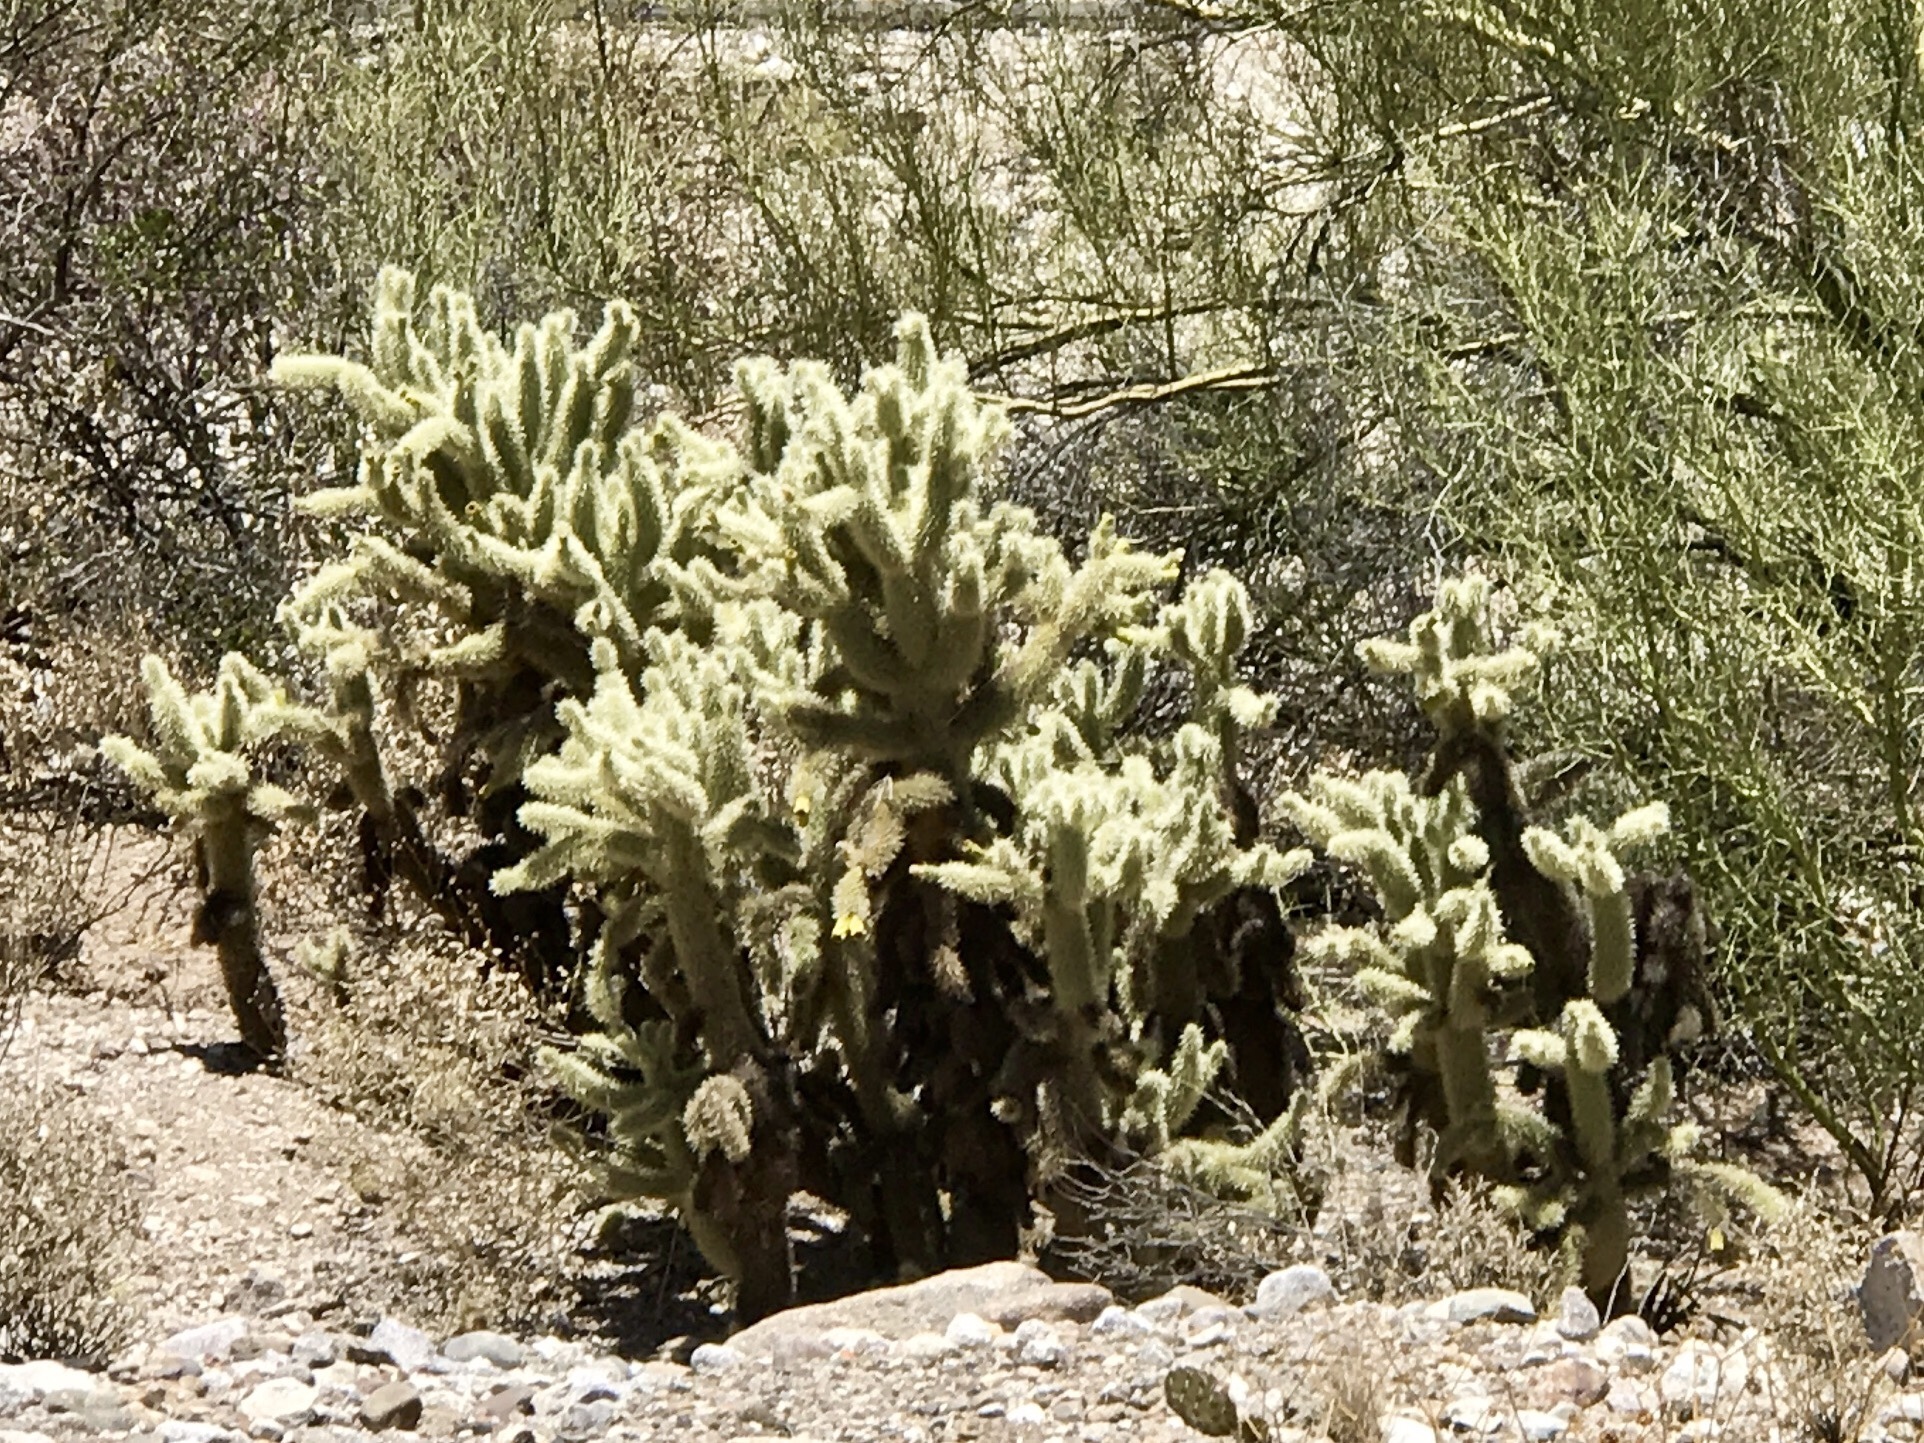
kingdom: Plantae
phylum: Tracheophyta
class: Magnoliopsida
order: Caryophyllales
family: Cactaceae
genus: Cylindropuntia
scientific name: Cylindropuntia fosbergii
